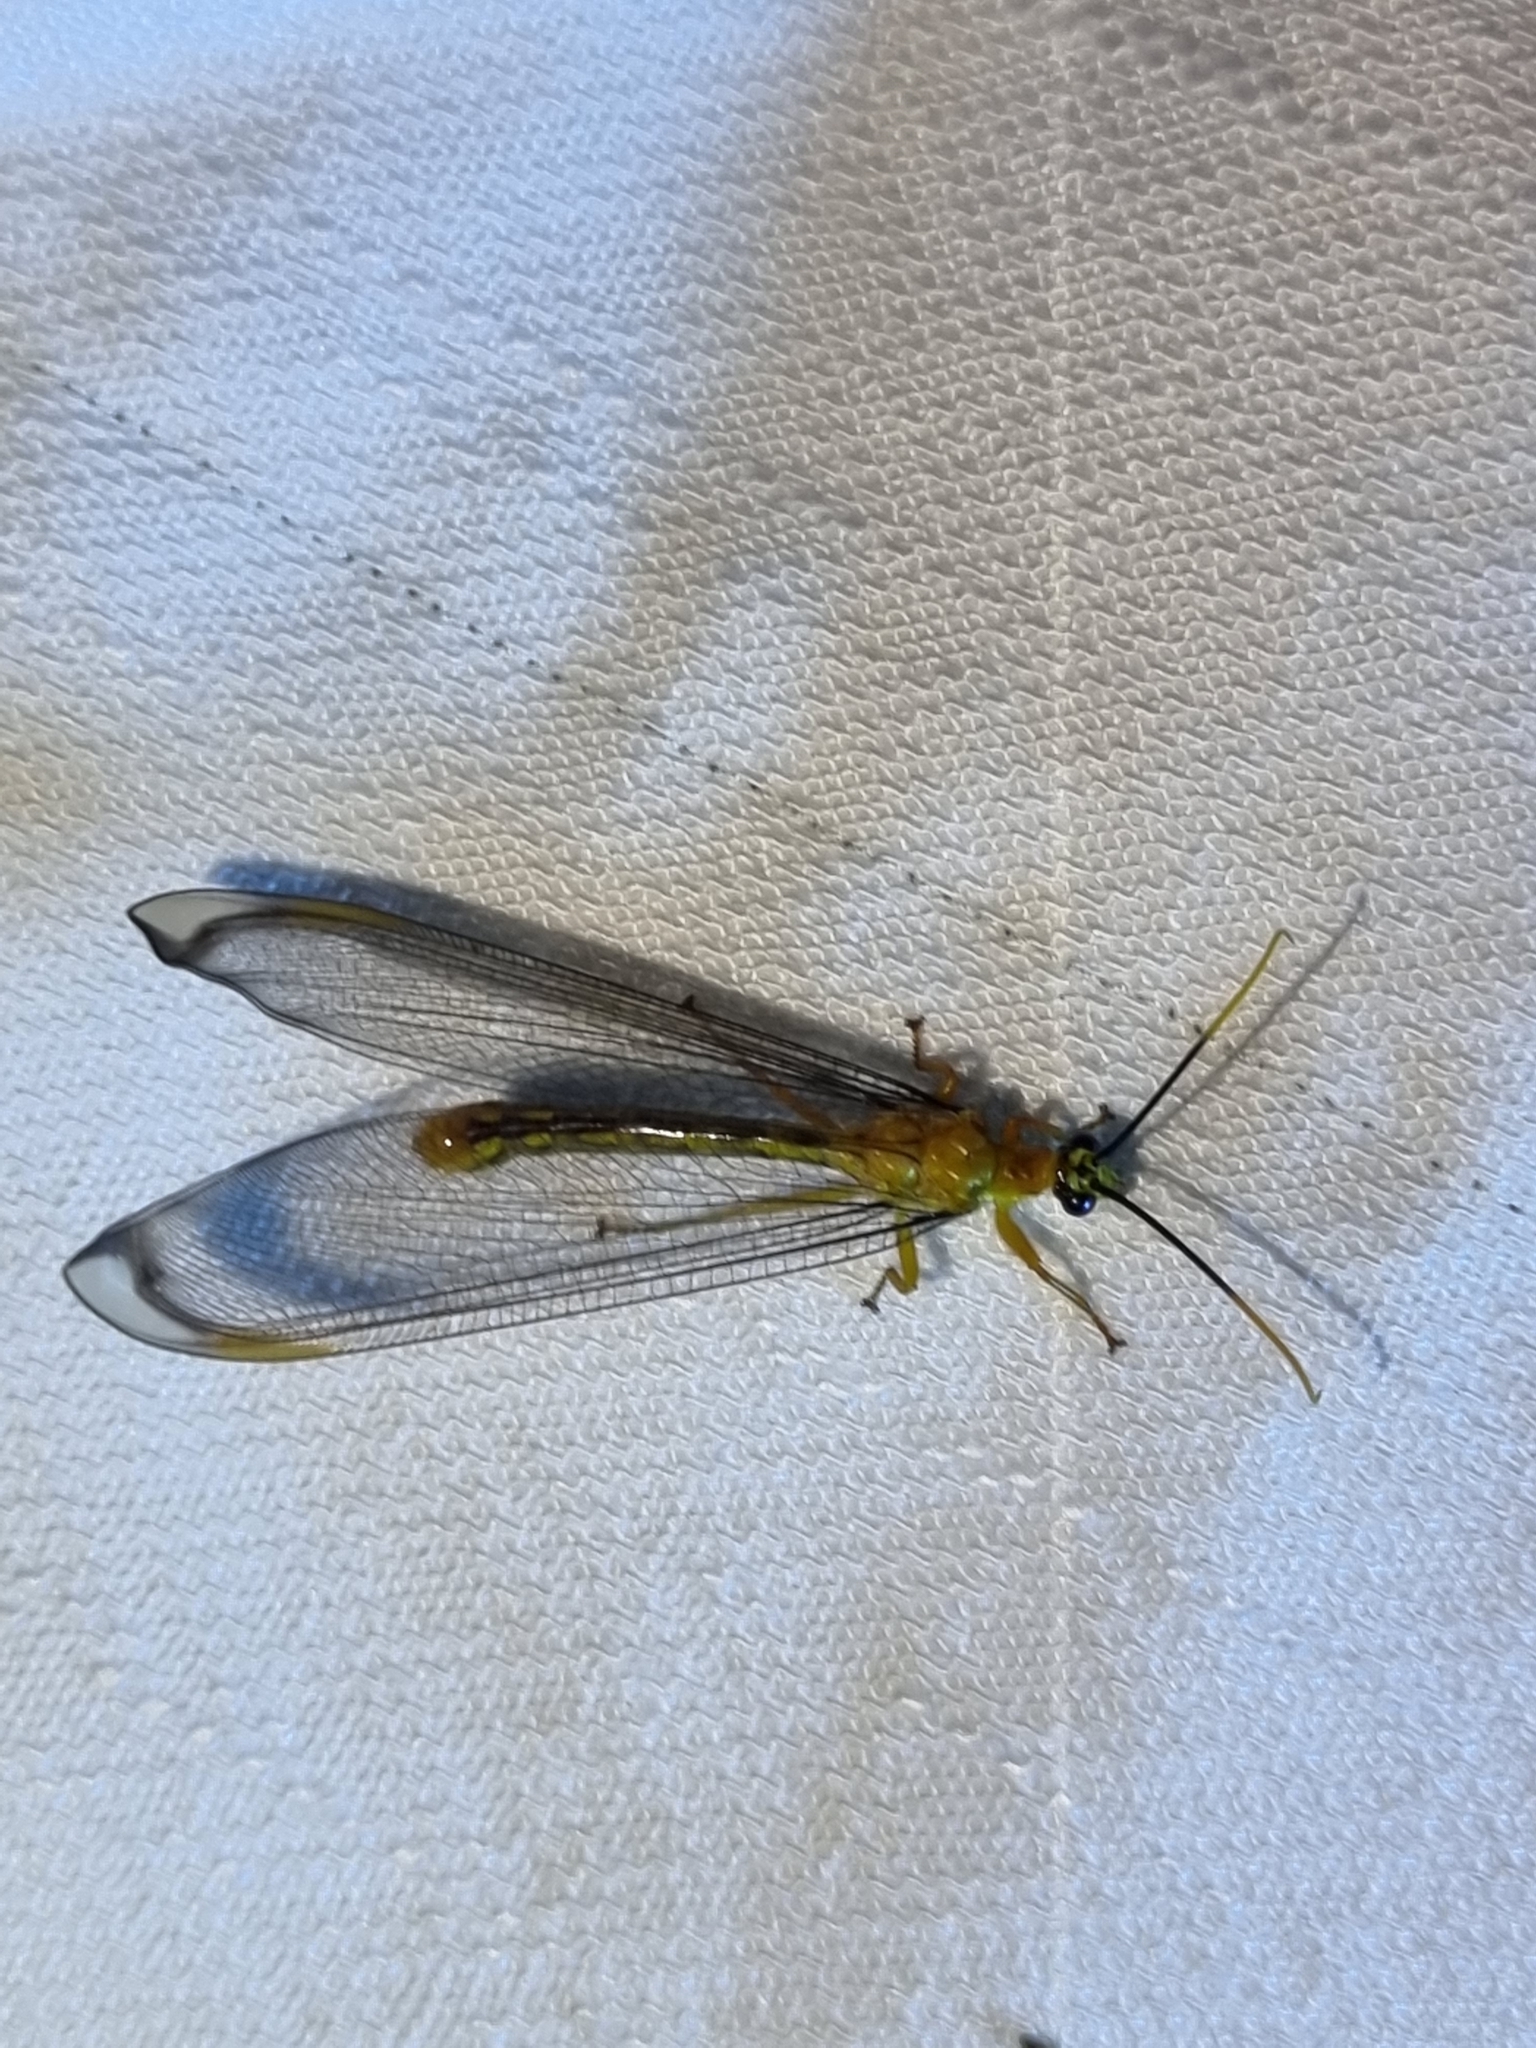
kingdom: Animalia
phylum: Arthropoda
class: Insecta
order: Neuroptera
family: Nymphidae
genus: Nymphes
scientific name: Nymphes myrmeleonoides
